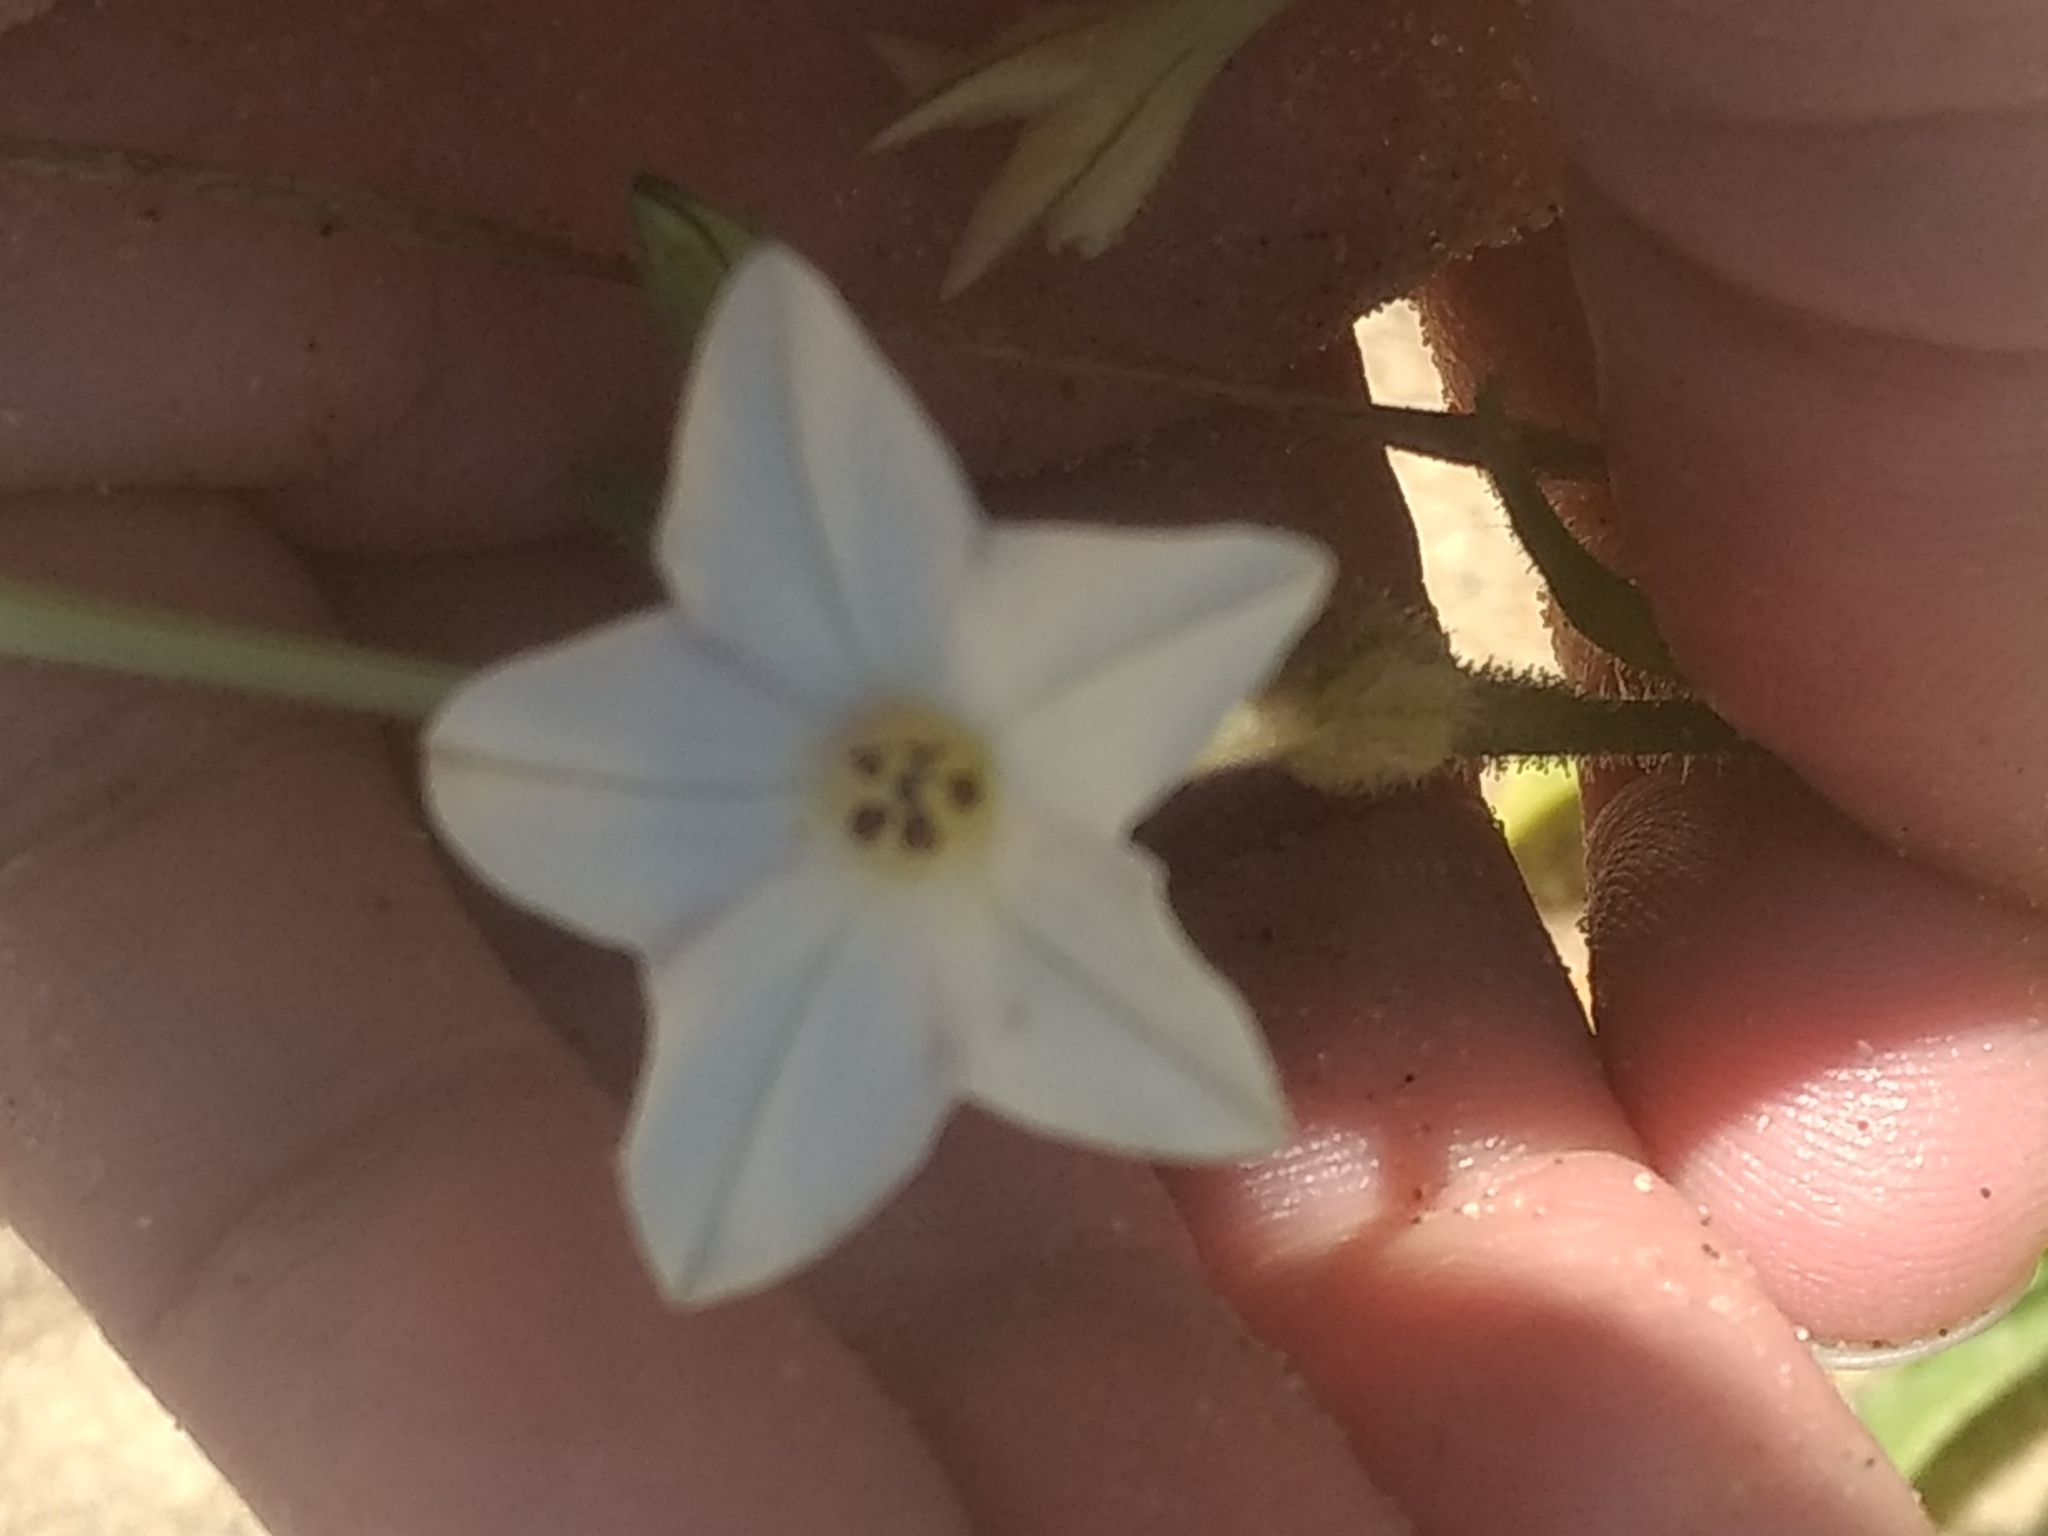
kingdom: Plantae
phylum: Tracheophyta
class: Magnoliopsida
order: Solanales
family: Solanaceae
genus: Nicotiana
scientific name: Nicotiana quadrivalvis
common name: Indian tobacco
